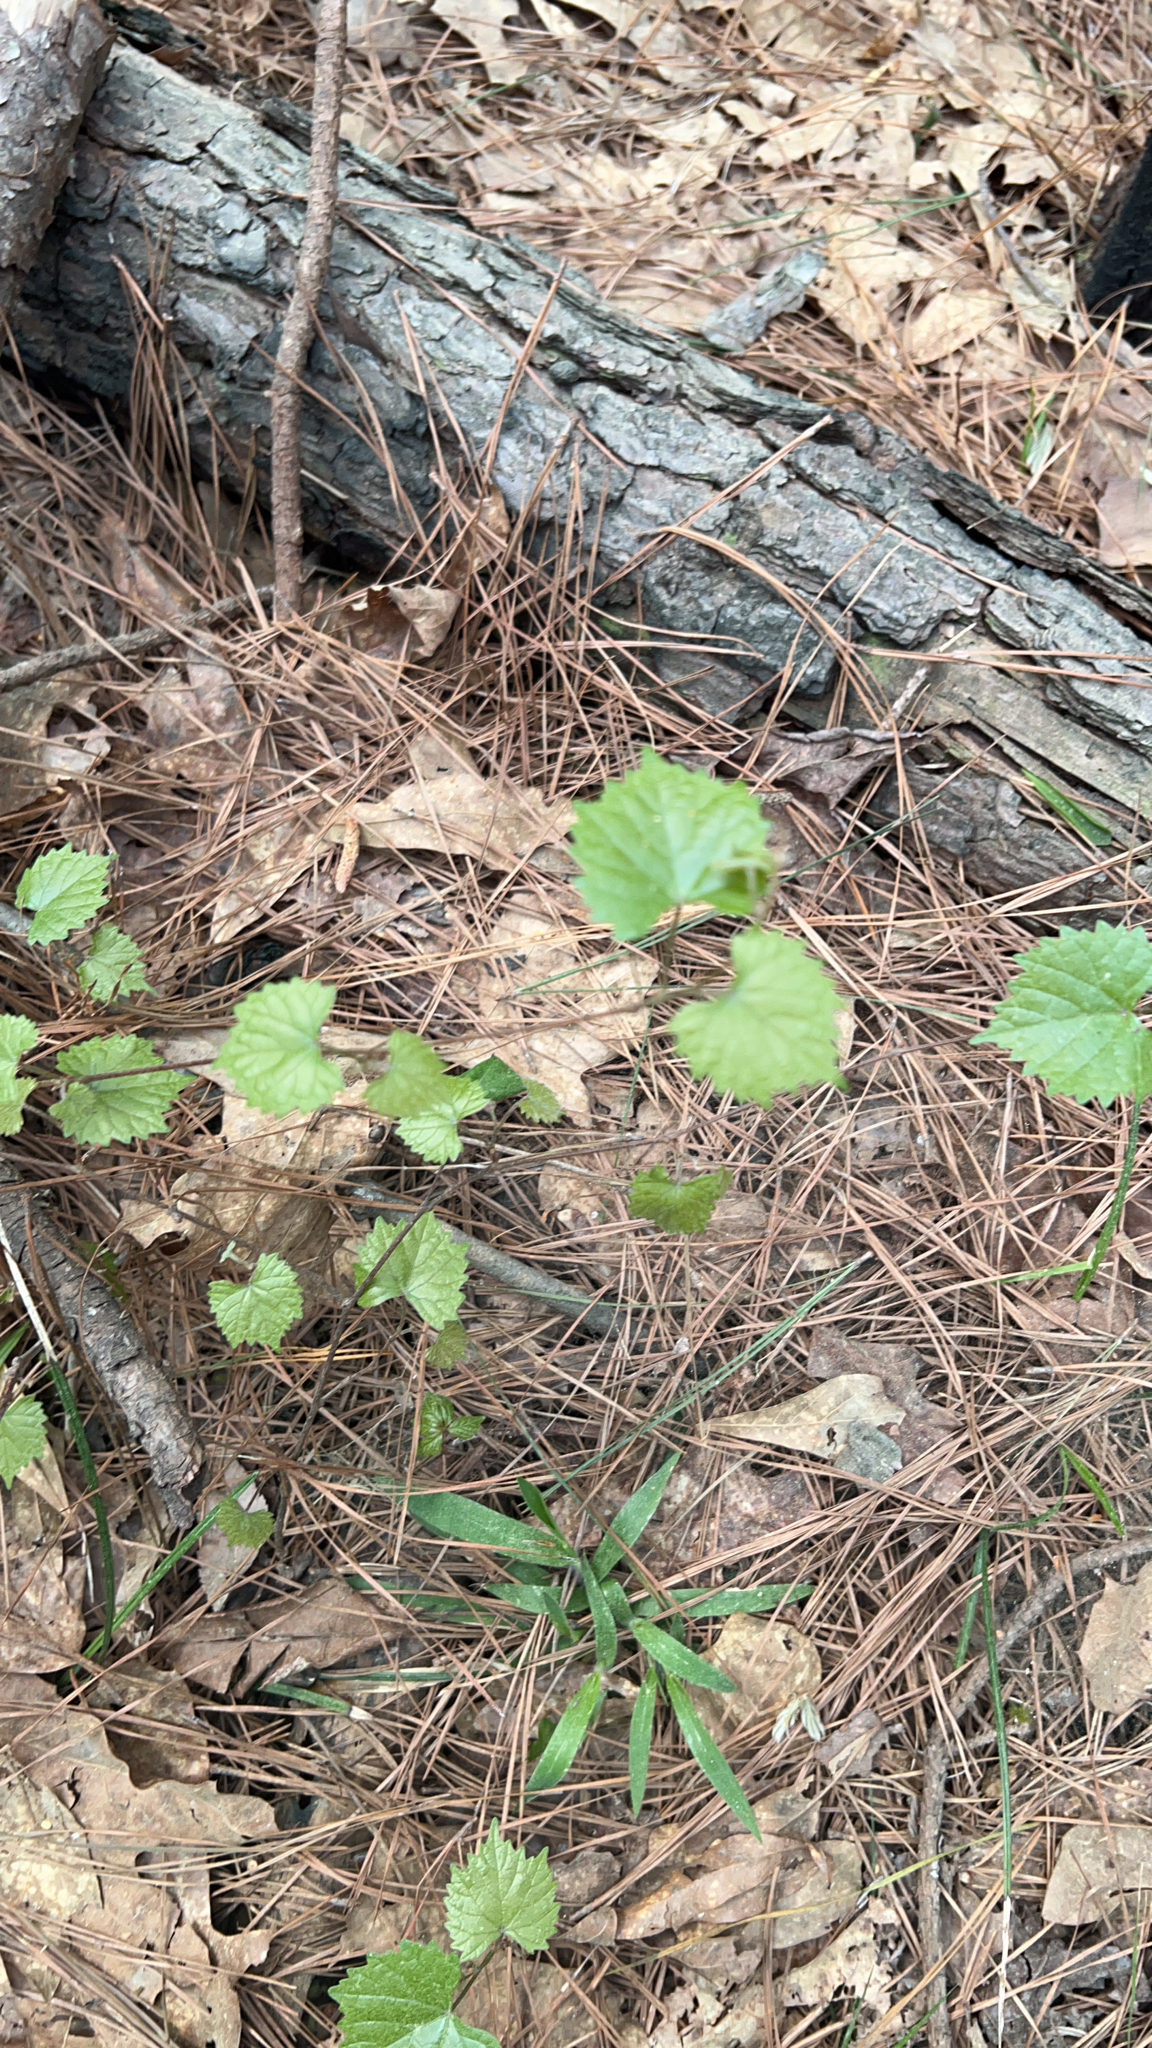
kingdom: Plantae
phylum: Tracheophyta
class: Magnoliopsida
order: Vitales
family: Vitaceae
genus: Vitis
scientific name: Vitis rotundifolia
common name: Muscadine grape
